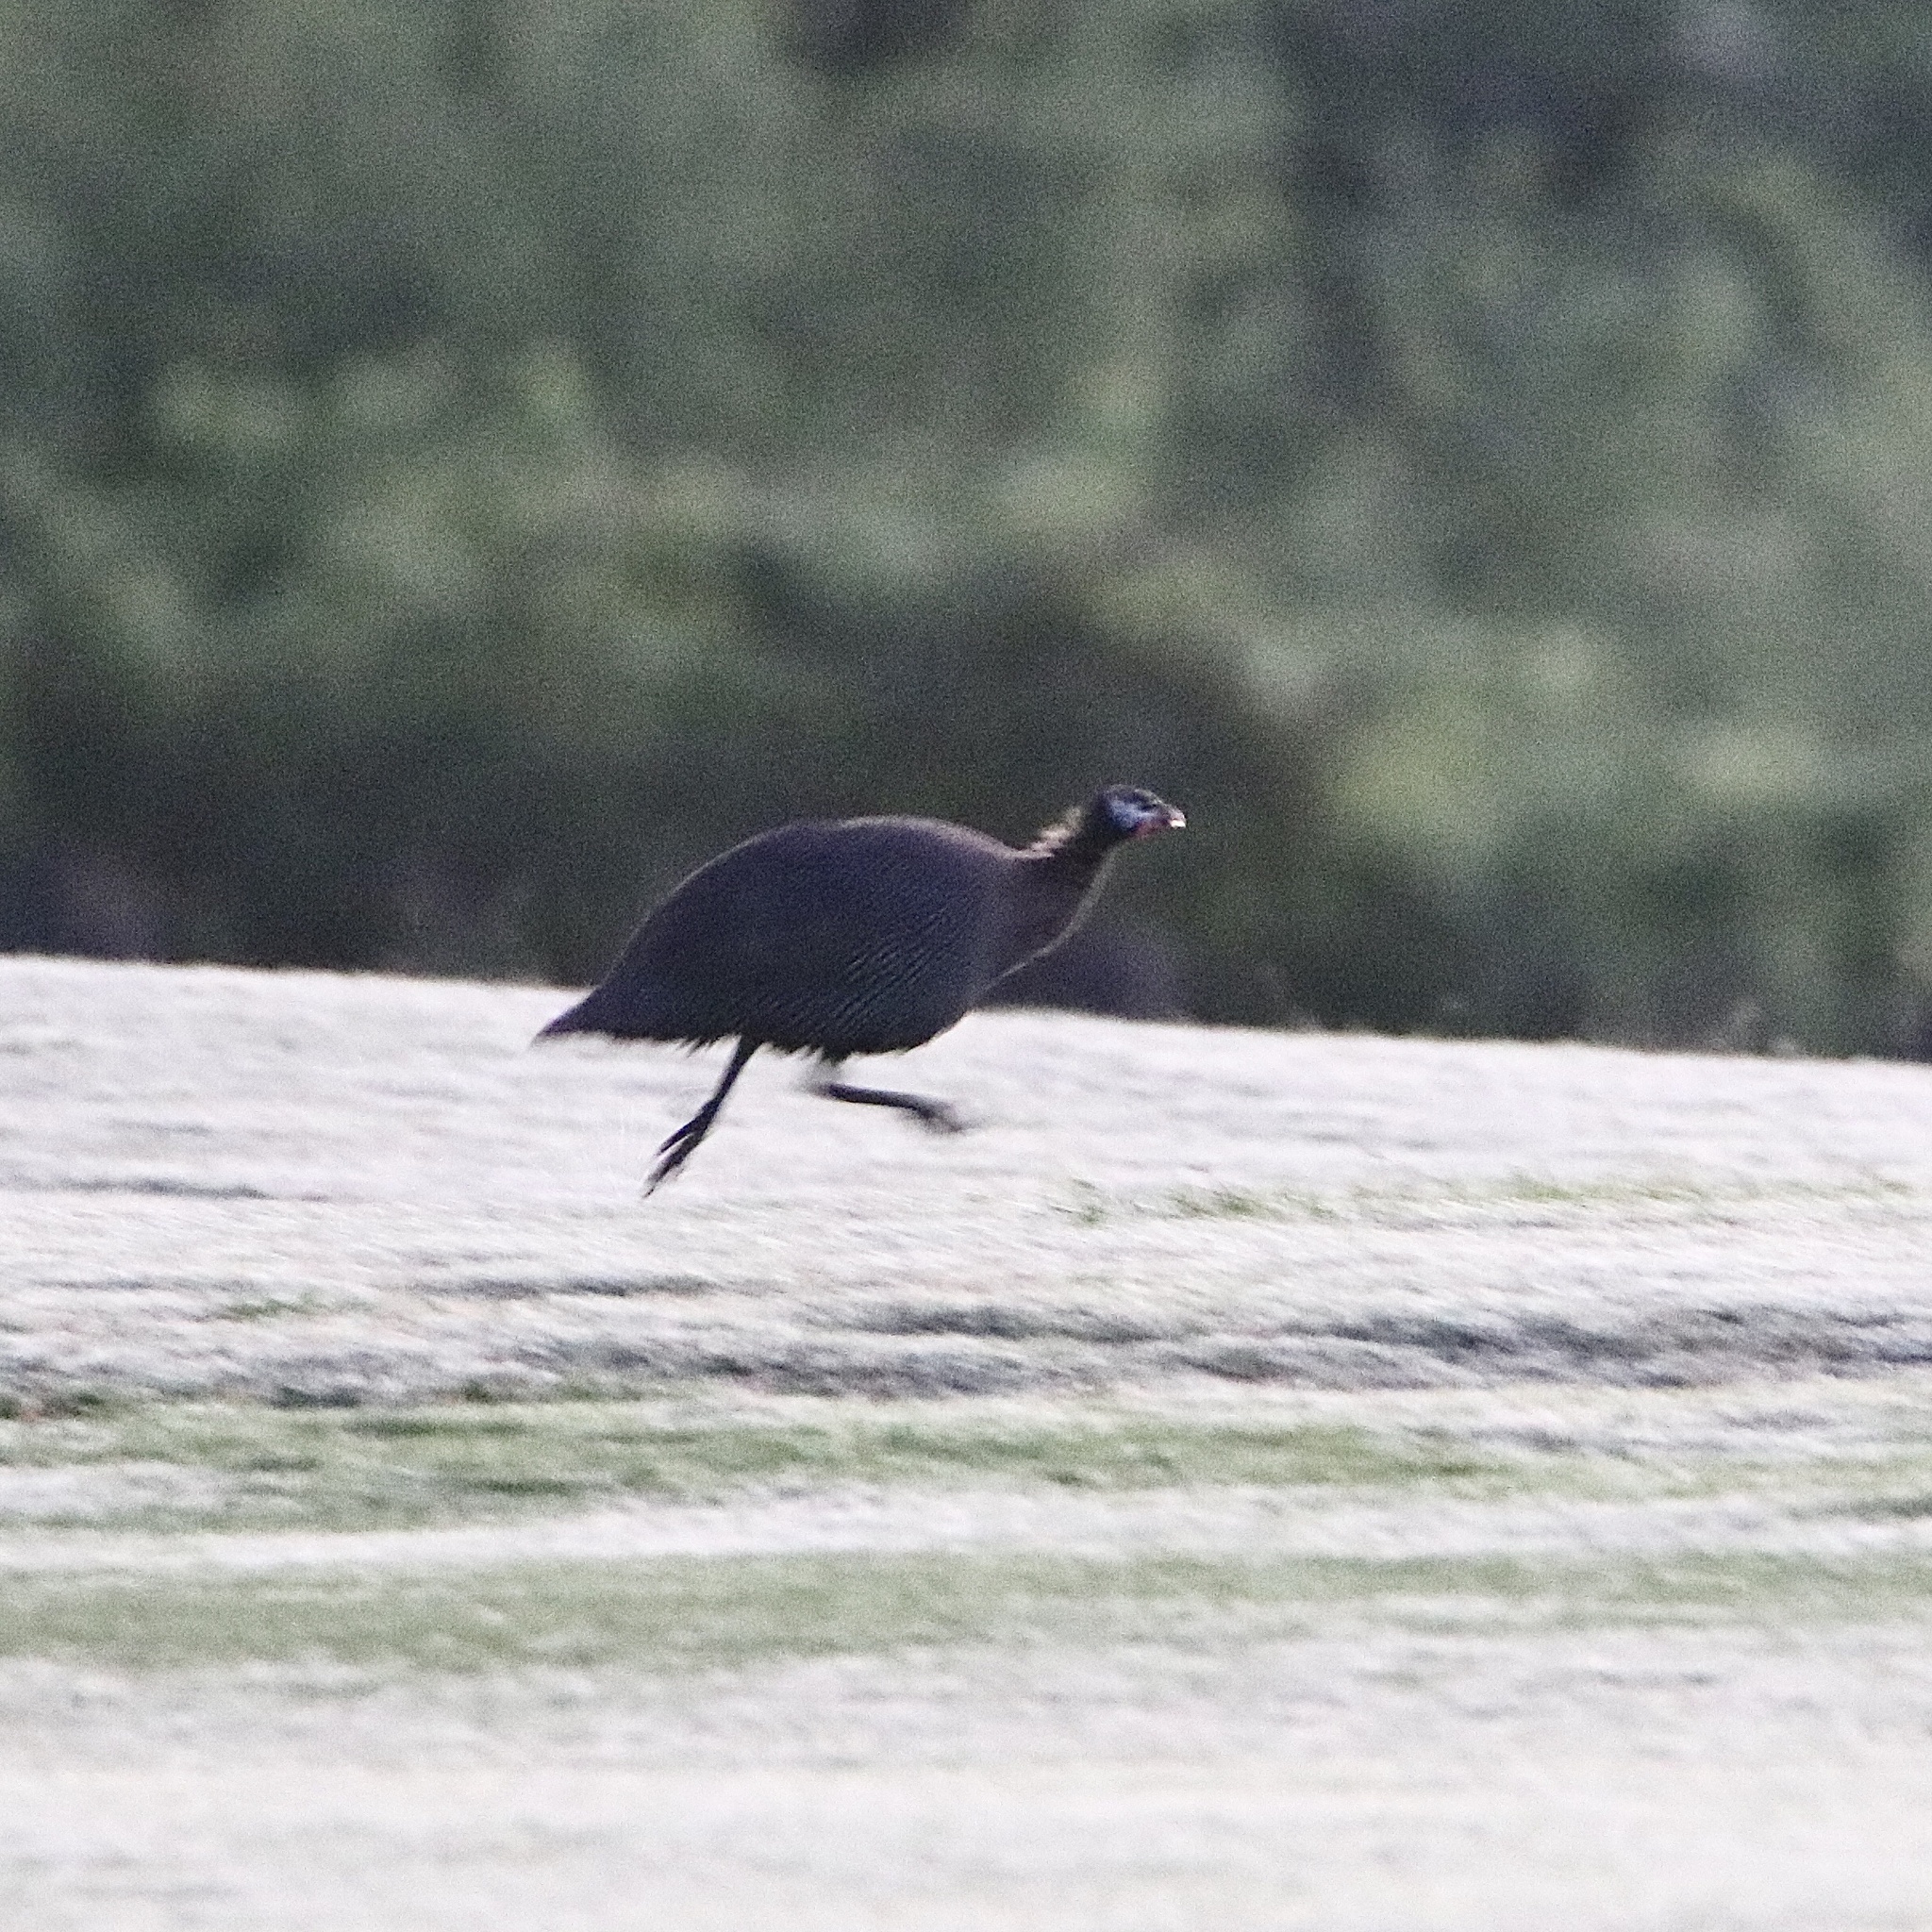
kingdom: Animalia
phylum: Chordata
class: Aves
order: Galliformes
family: Numididae
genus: Numida
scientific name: Numida meleagris
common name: Helmeted guineafowl
